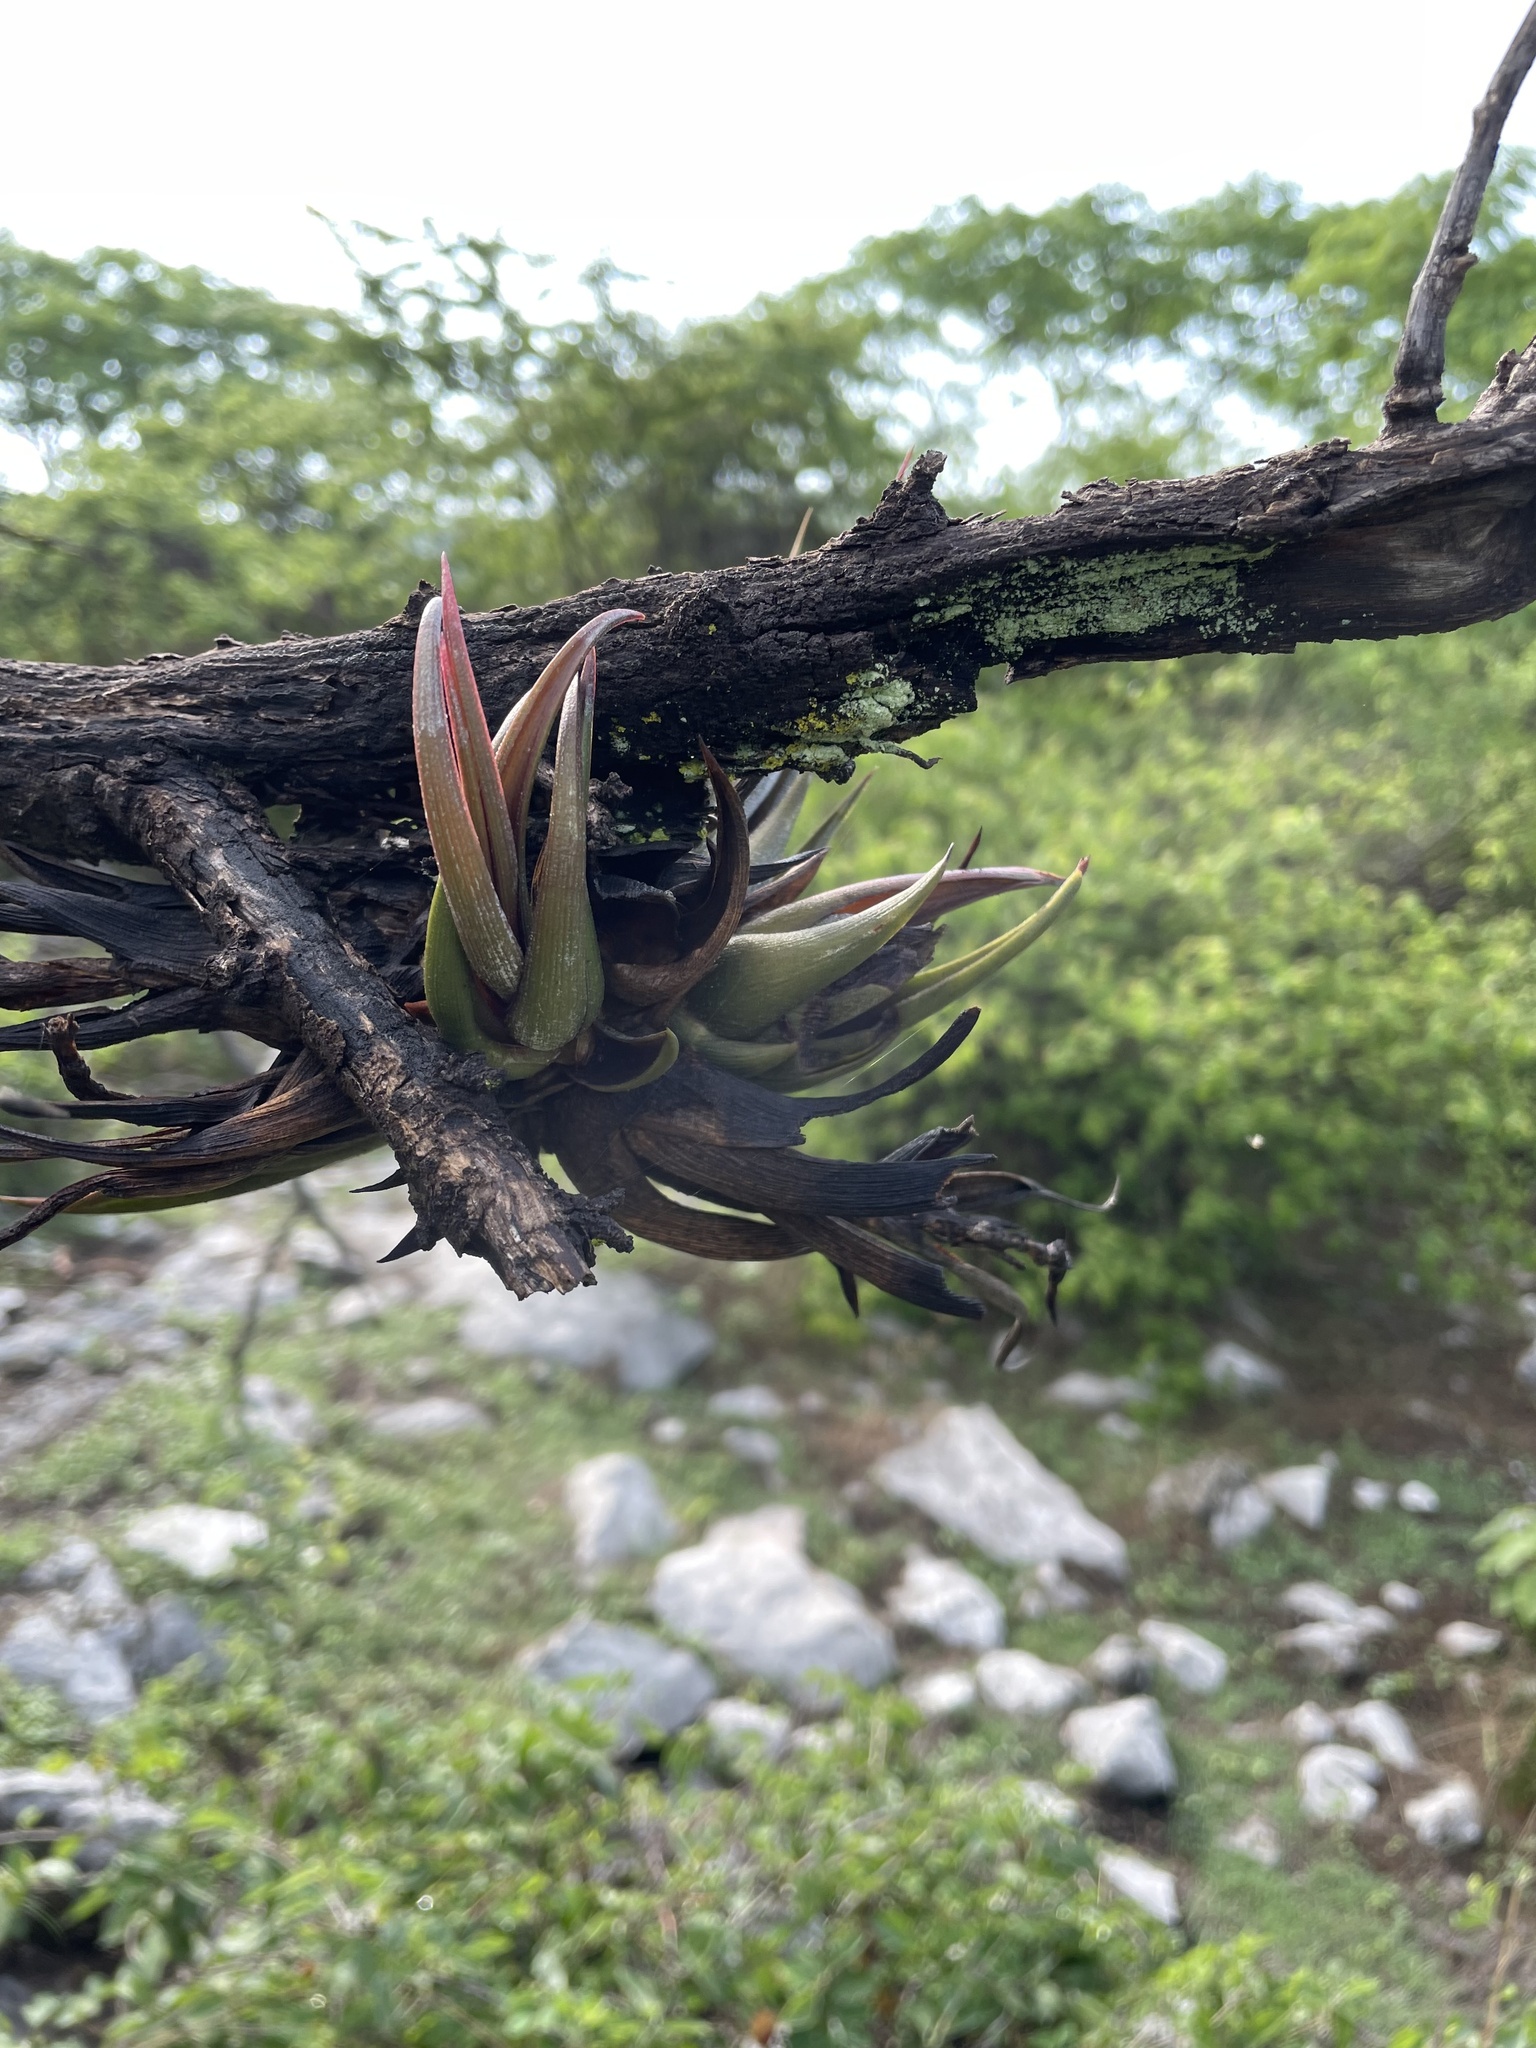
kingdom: Plantae
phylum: Tracheophyta
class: Liliopsida
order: Poales
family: Bromeliaceae
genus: Tillandsia
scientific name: Tillandsia circinnatioides
